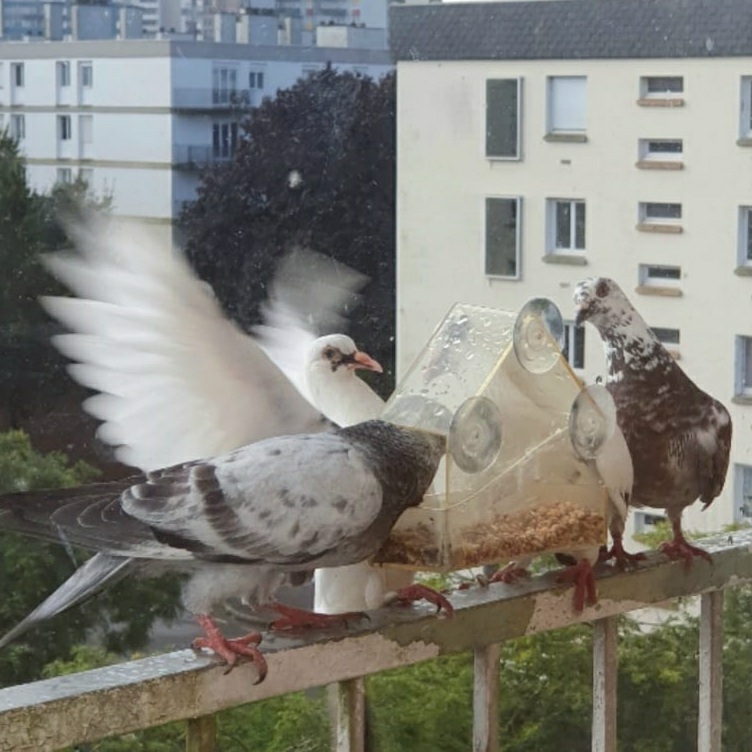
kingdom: Animalia
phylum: Chordata
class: Aves
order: Columbiformes
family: Columbidae
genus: Columba
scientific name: Columba livia
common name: Rock pigeon
